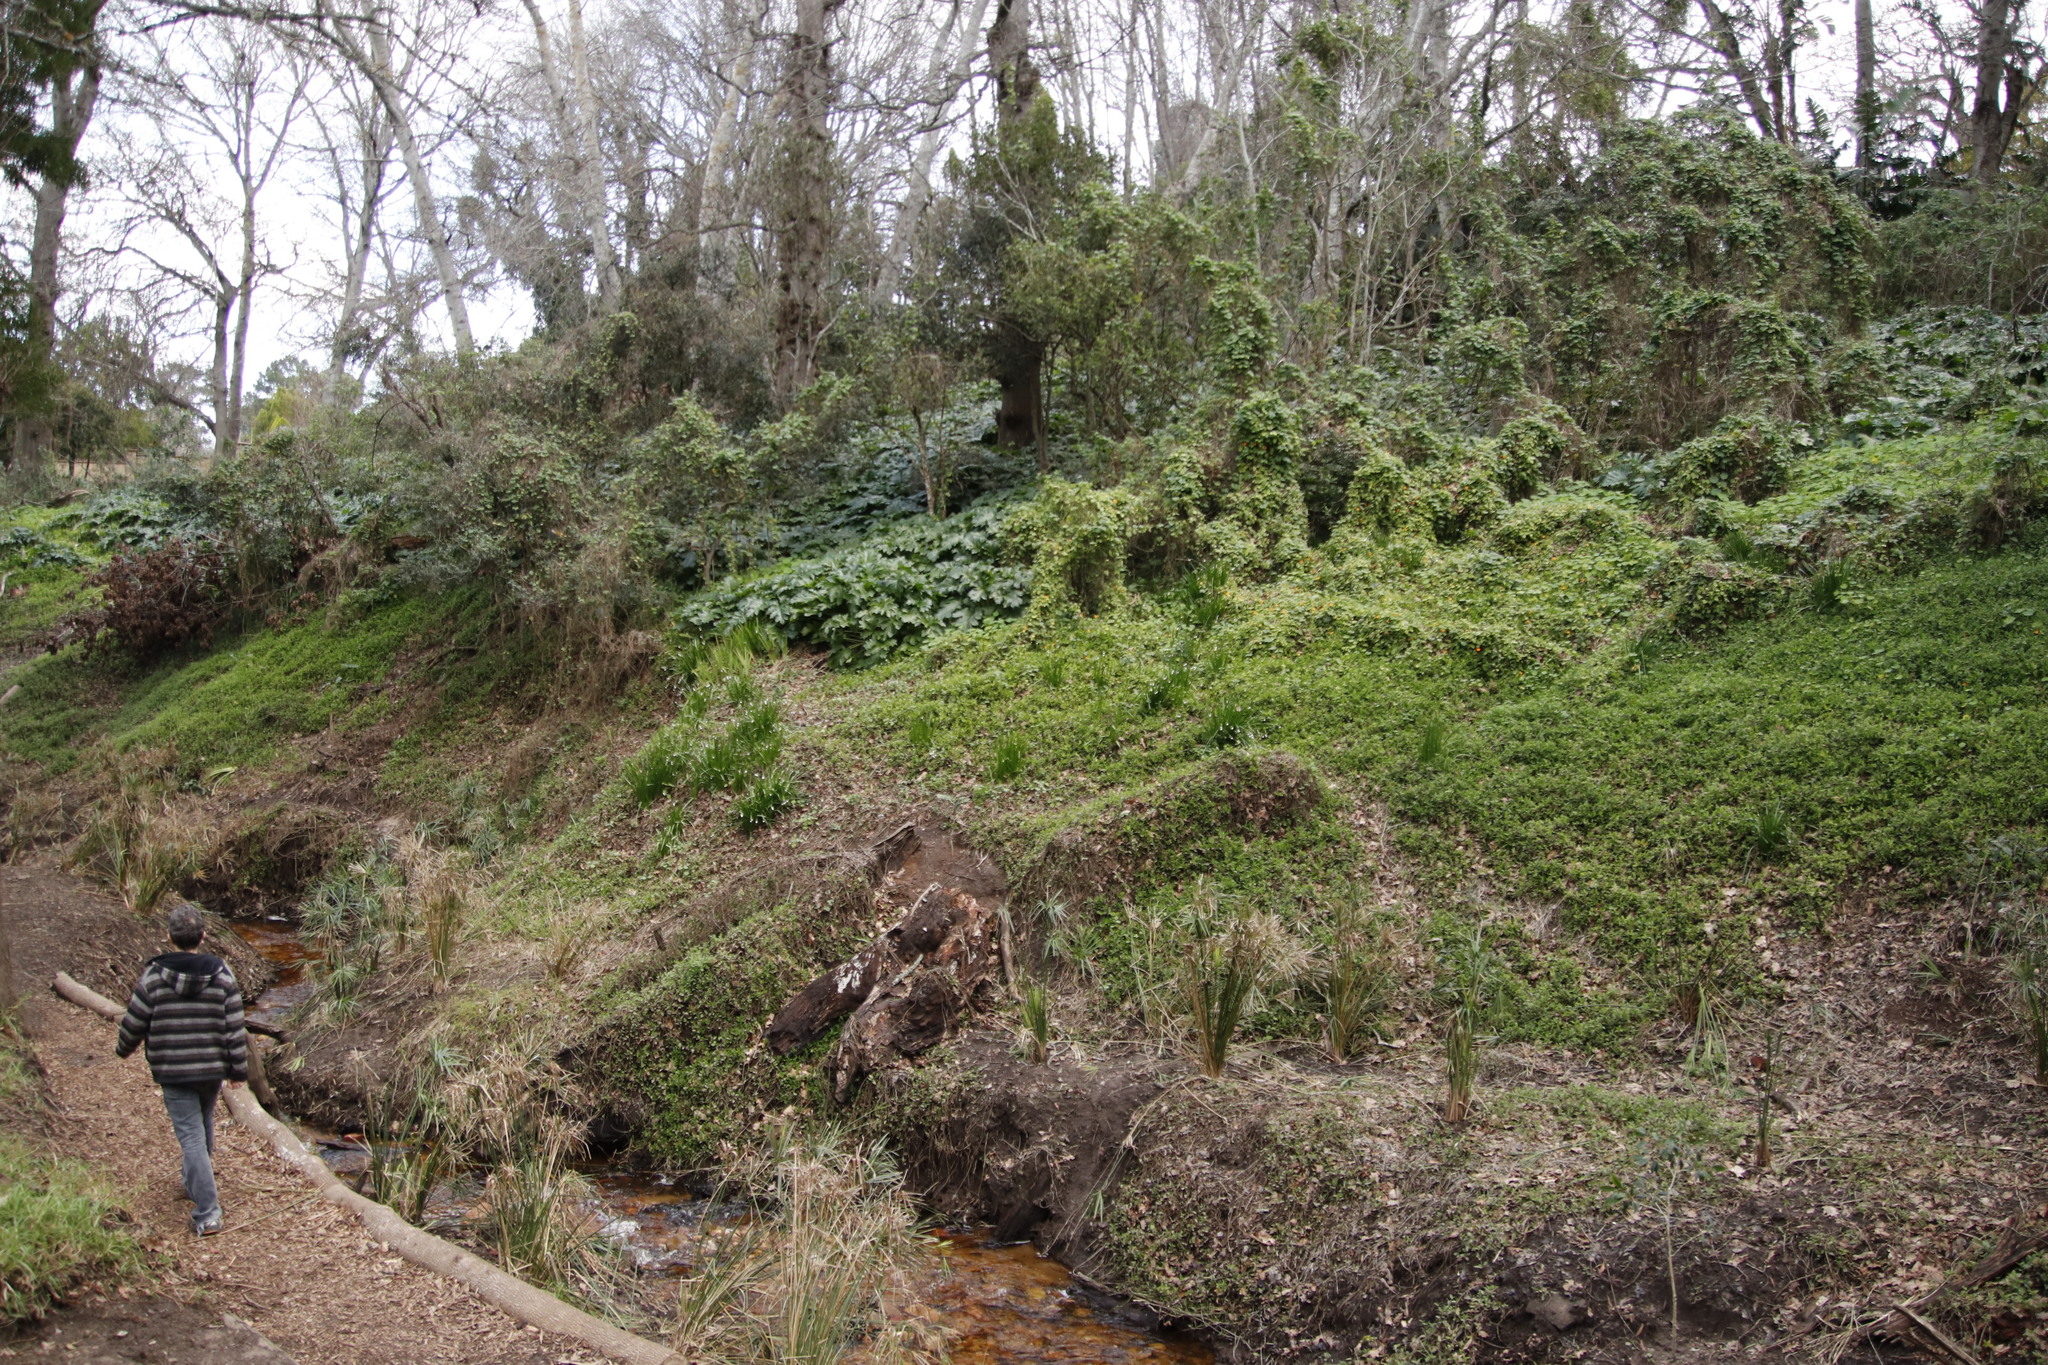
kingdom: Plantae
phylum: Tracheophyta
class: Liliopsida
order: Asparagales
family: Amaryllidaceae
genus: Leucojum
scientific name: Leucojum aestivum
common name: Summer snowflake
